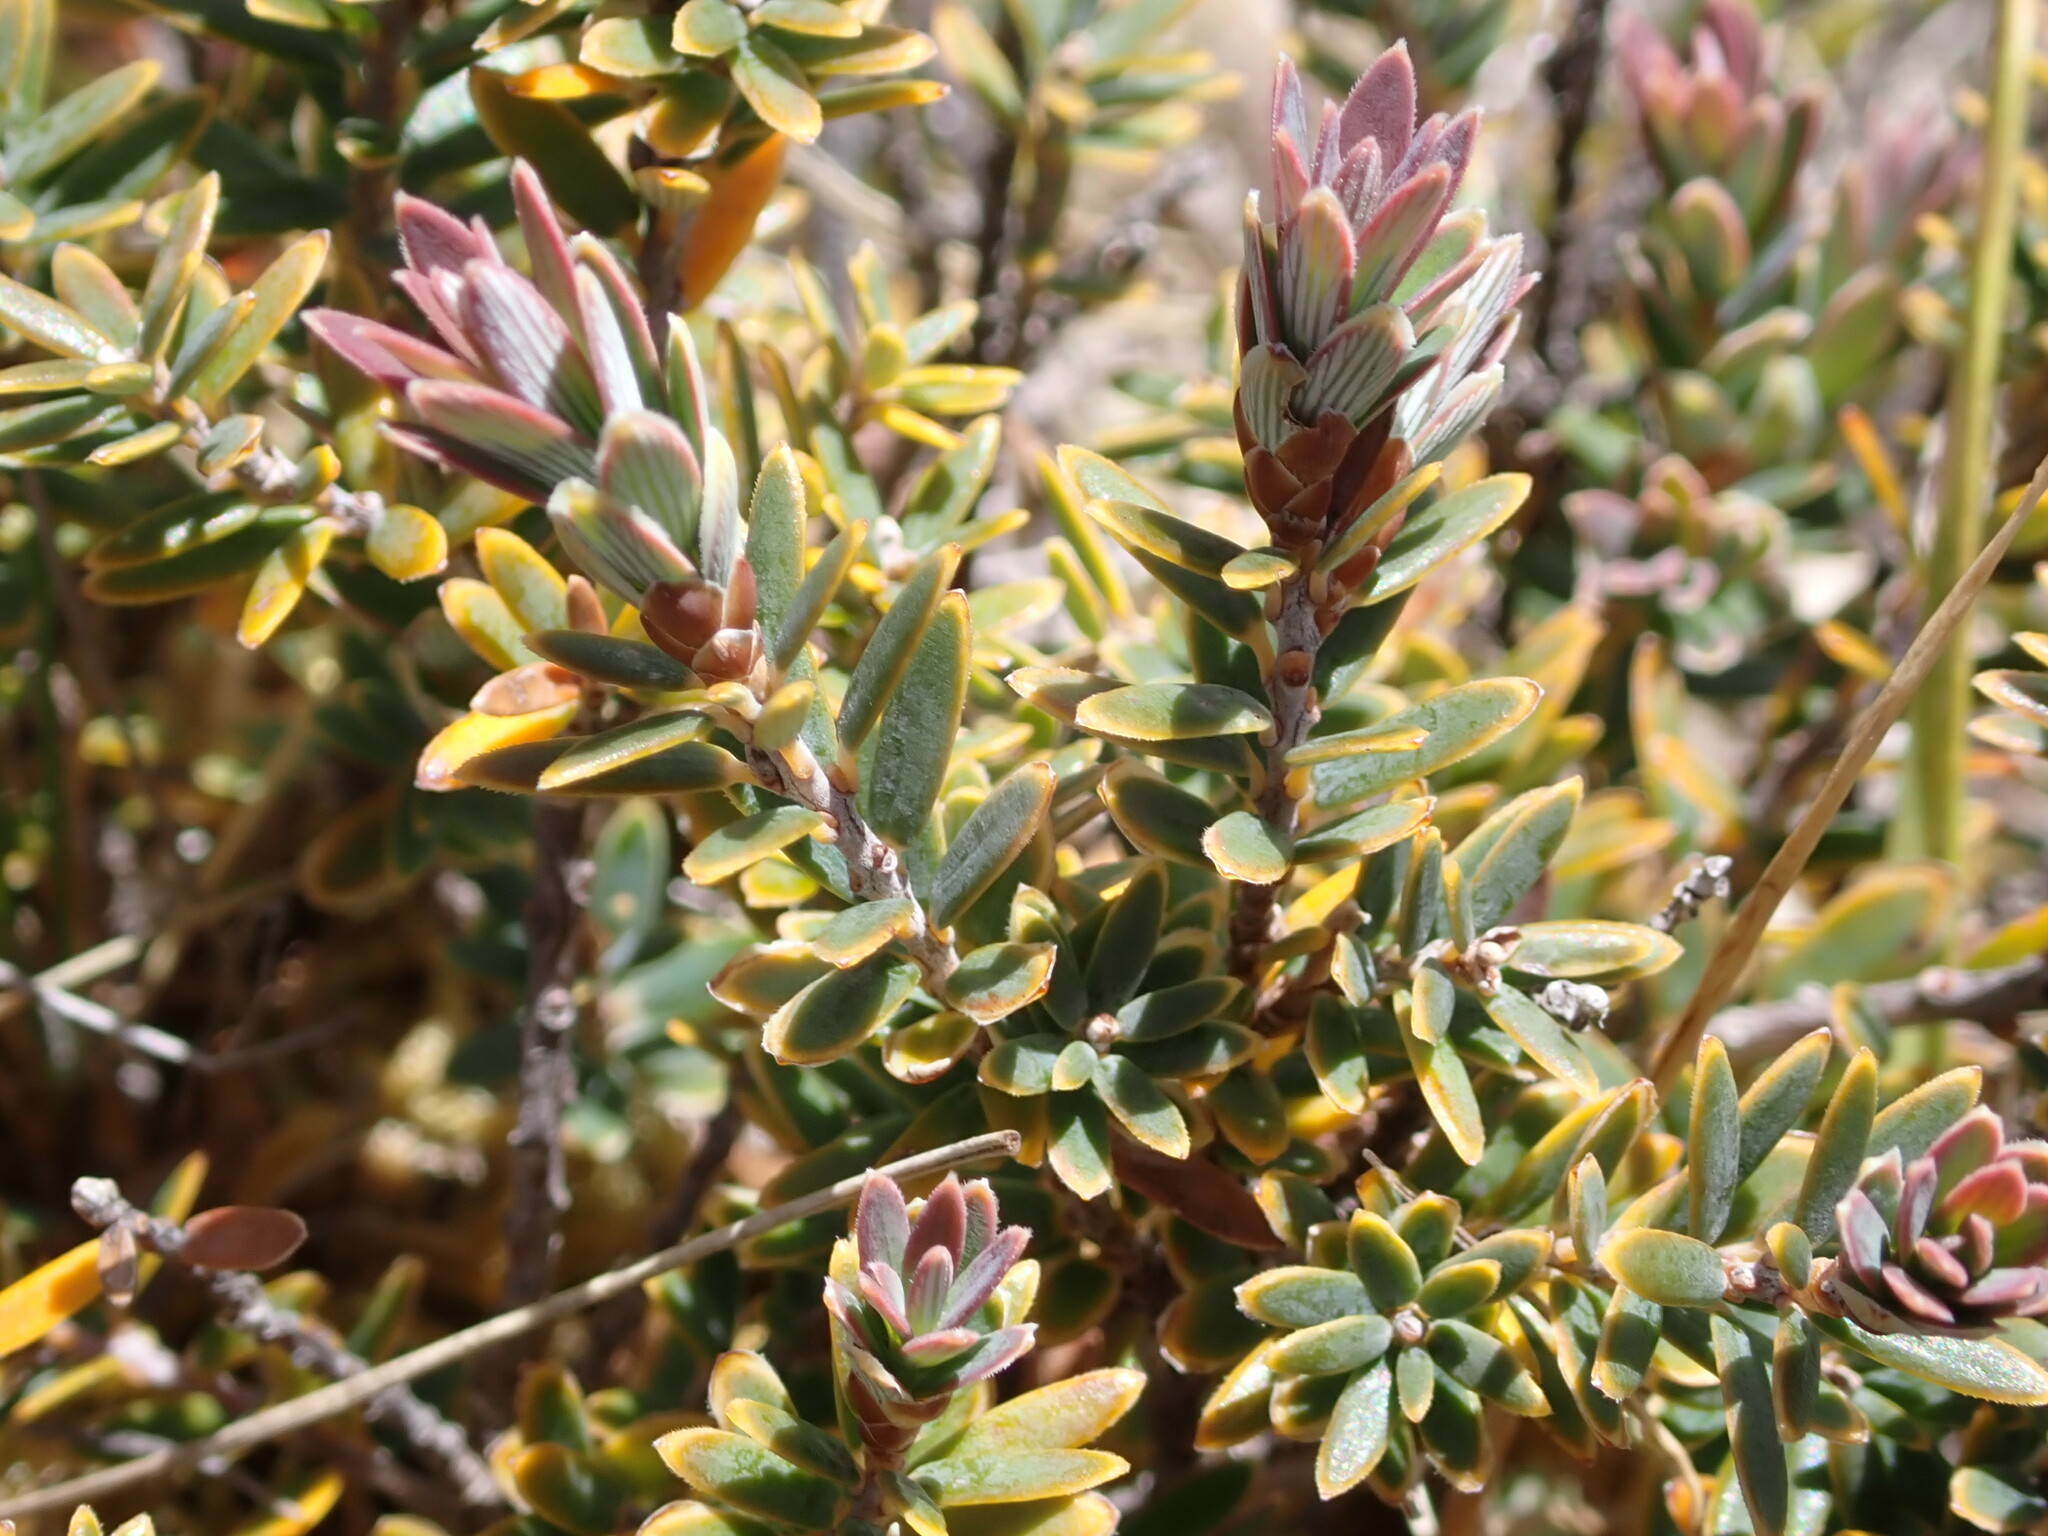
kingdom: Plantae
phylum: Tracheophyta
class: Magnoliopsida
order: Ericales
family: Ericaceae
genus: Acrothamnus
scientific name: Acrothamnus colensoi
